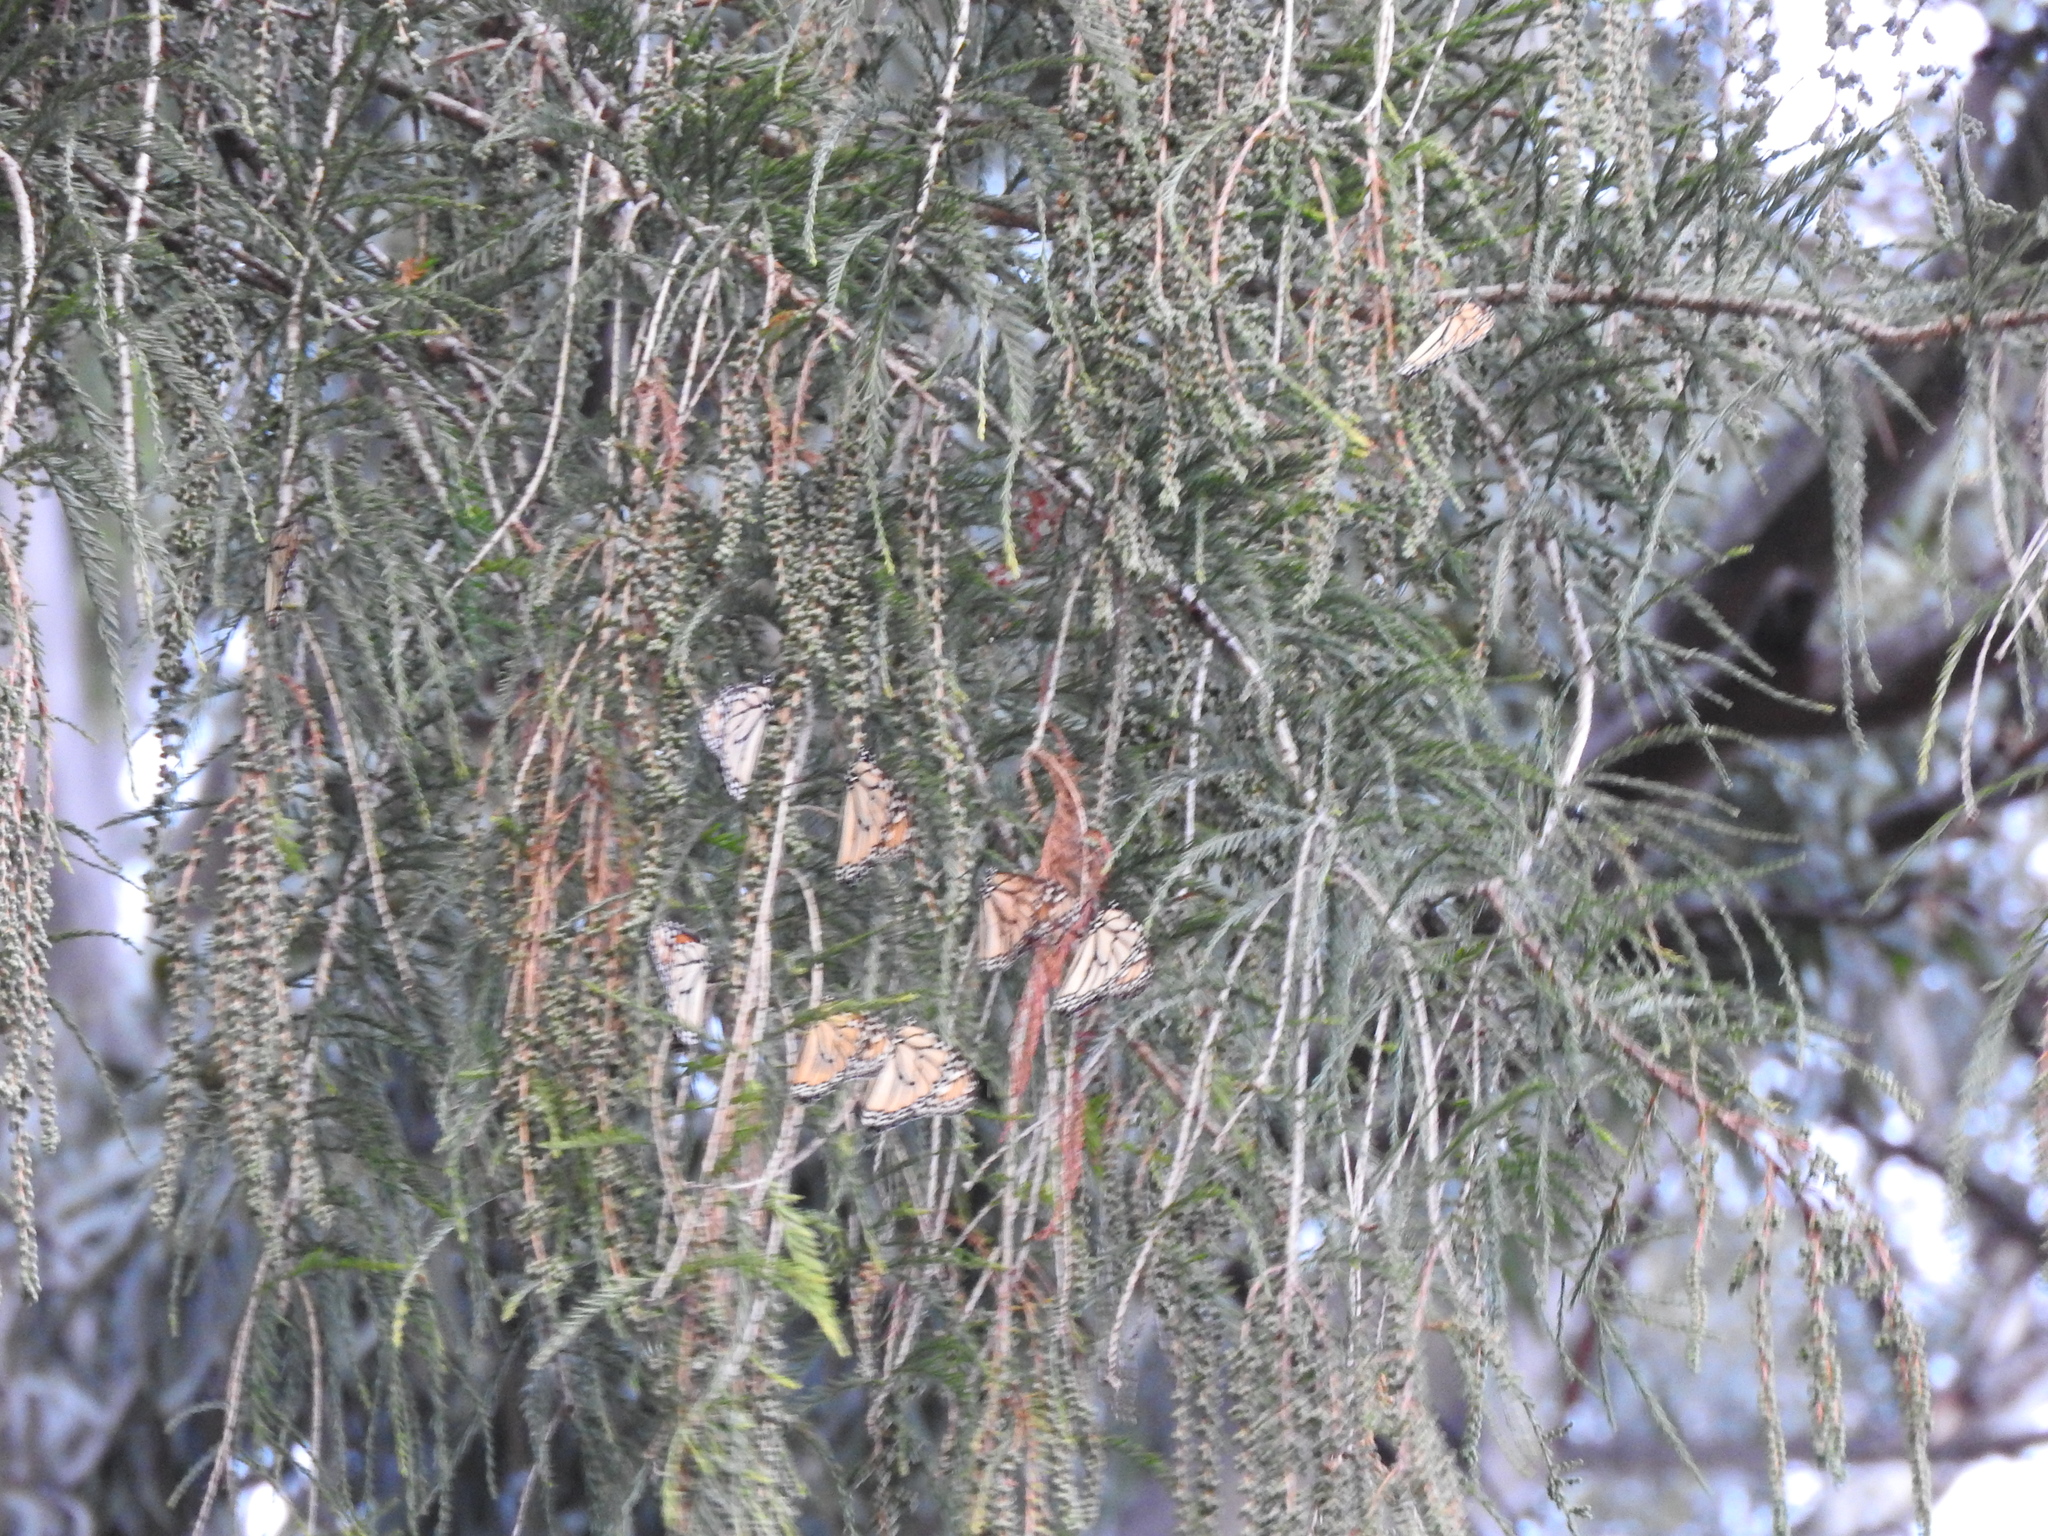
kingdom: Animalia
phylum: Arthropoda
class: Insecta
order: Lepidoptera
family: Nymphalidae
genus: Danaus
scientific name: Danaus plexippus
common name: Monarch
